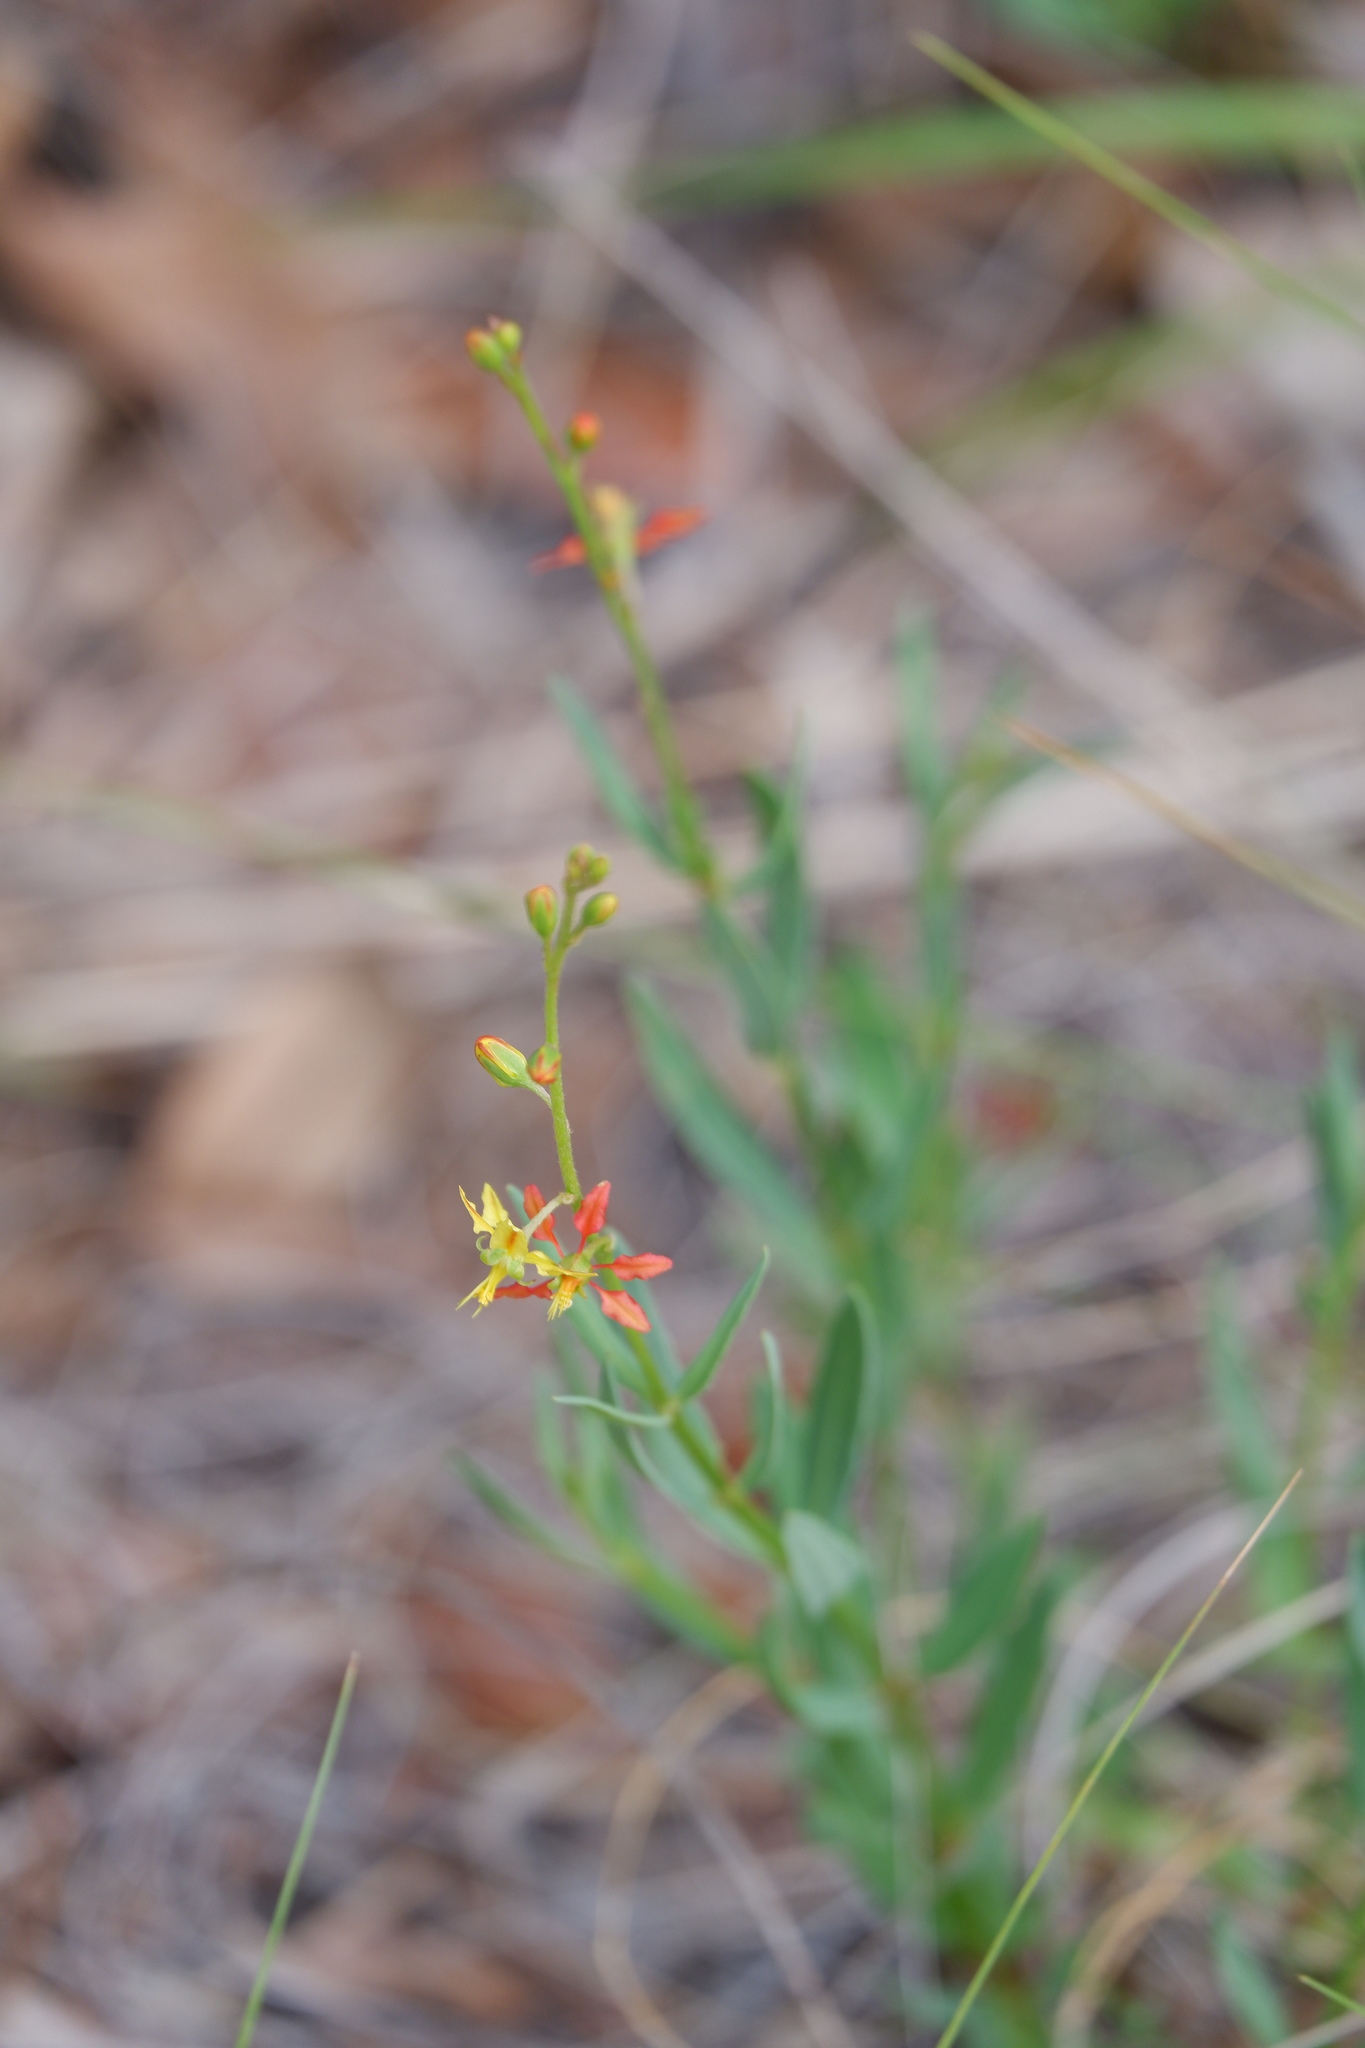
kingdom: Plantae
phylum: Tracheophyta
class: Magnoliopsida
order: Malpighiales
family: Malpighiaceae
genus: Galphimia
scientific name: Galphimia angustifolia
